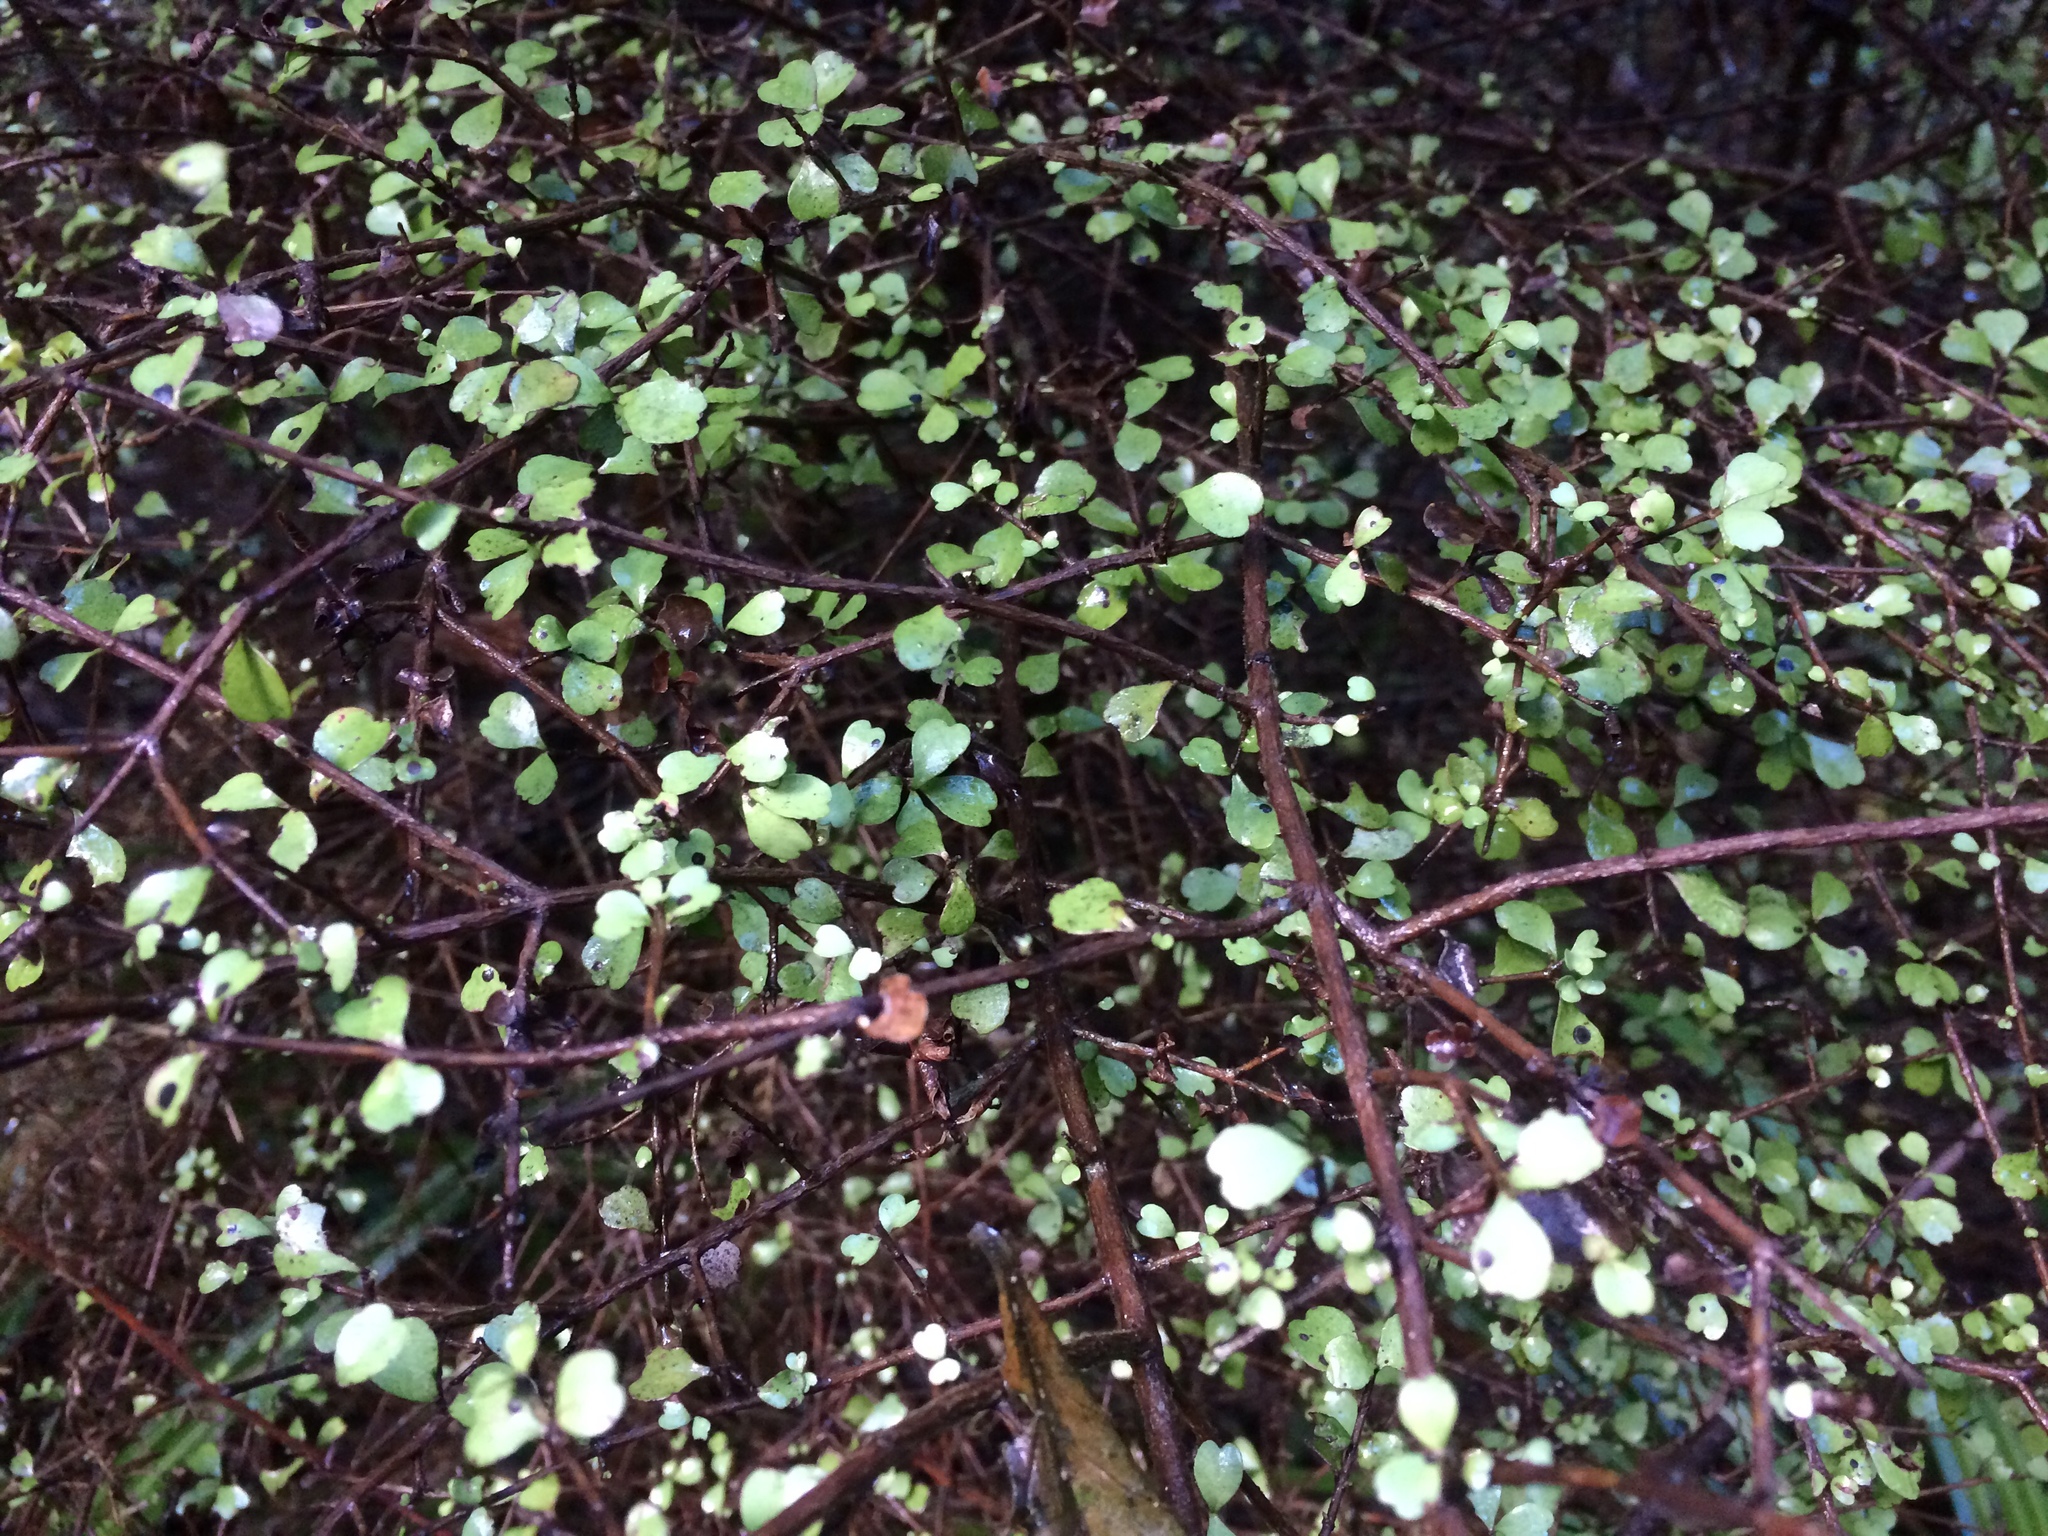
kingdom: Plantae
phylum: Tracheophyta
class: Magnoliopsida
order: Myrtales
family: Myrtaceae
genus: Lophomyrtus
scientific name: Lophomyrtus obcordata
